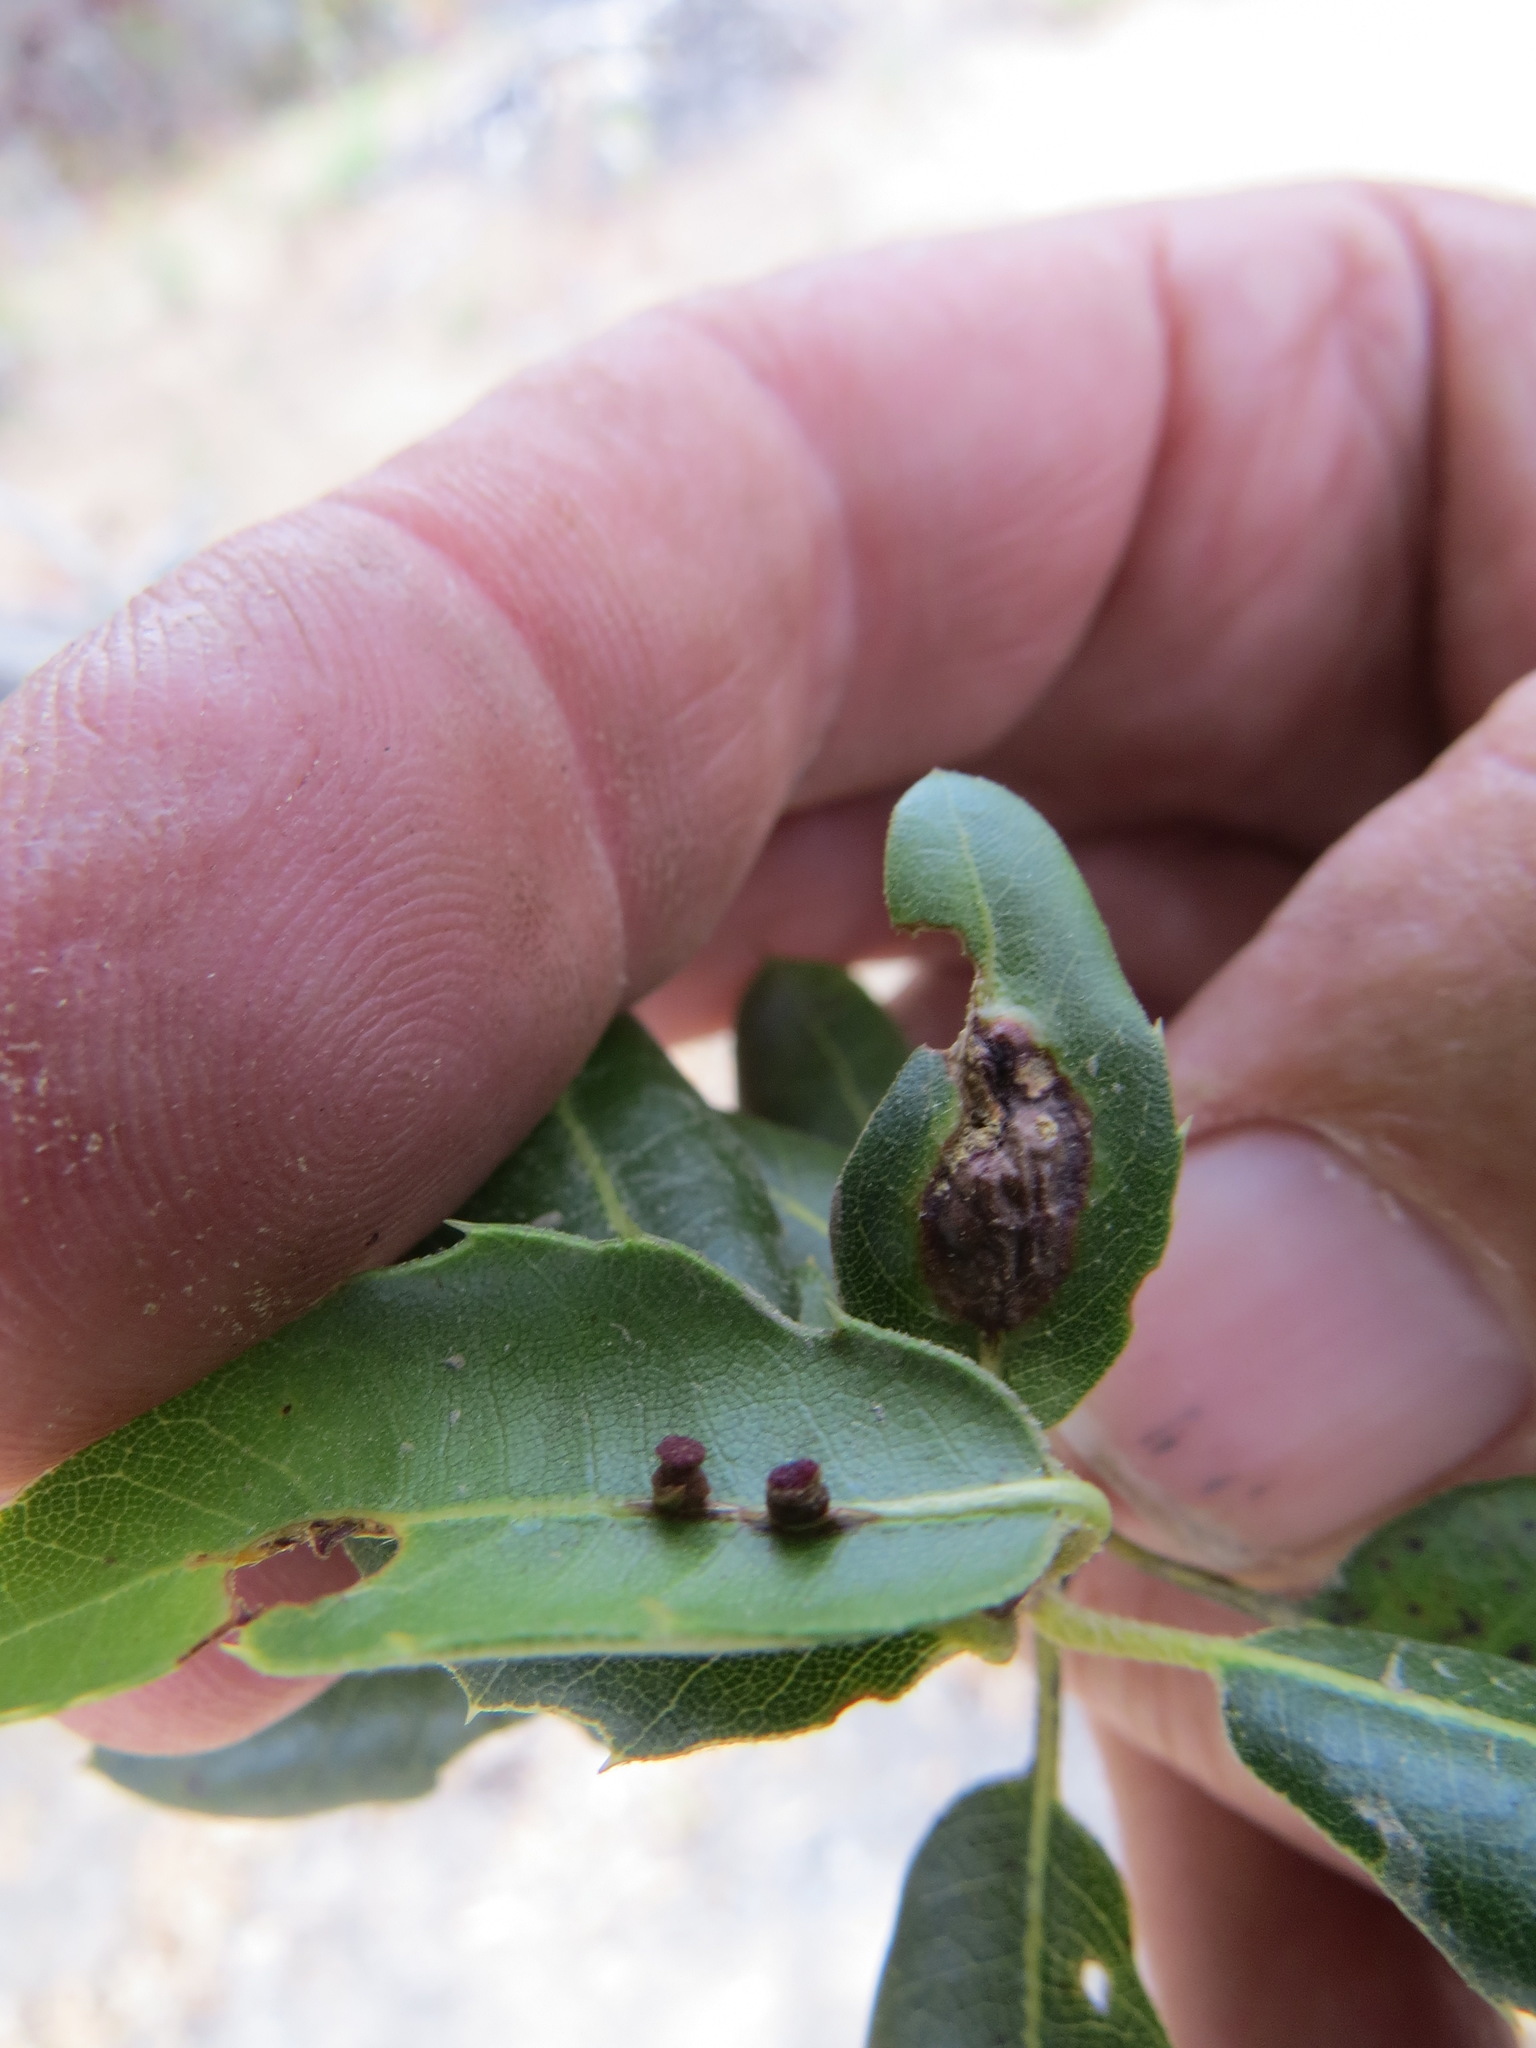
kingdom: Animalia
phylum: Arthropoda
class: Insecta
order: Hymenoptera
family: Cynipidae
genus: Callirhytis
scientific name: Callirhytis
